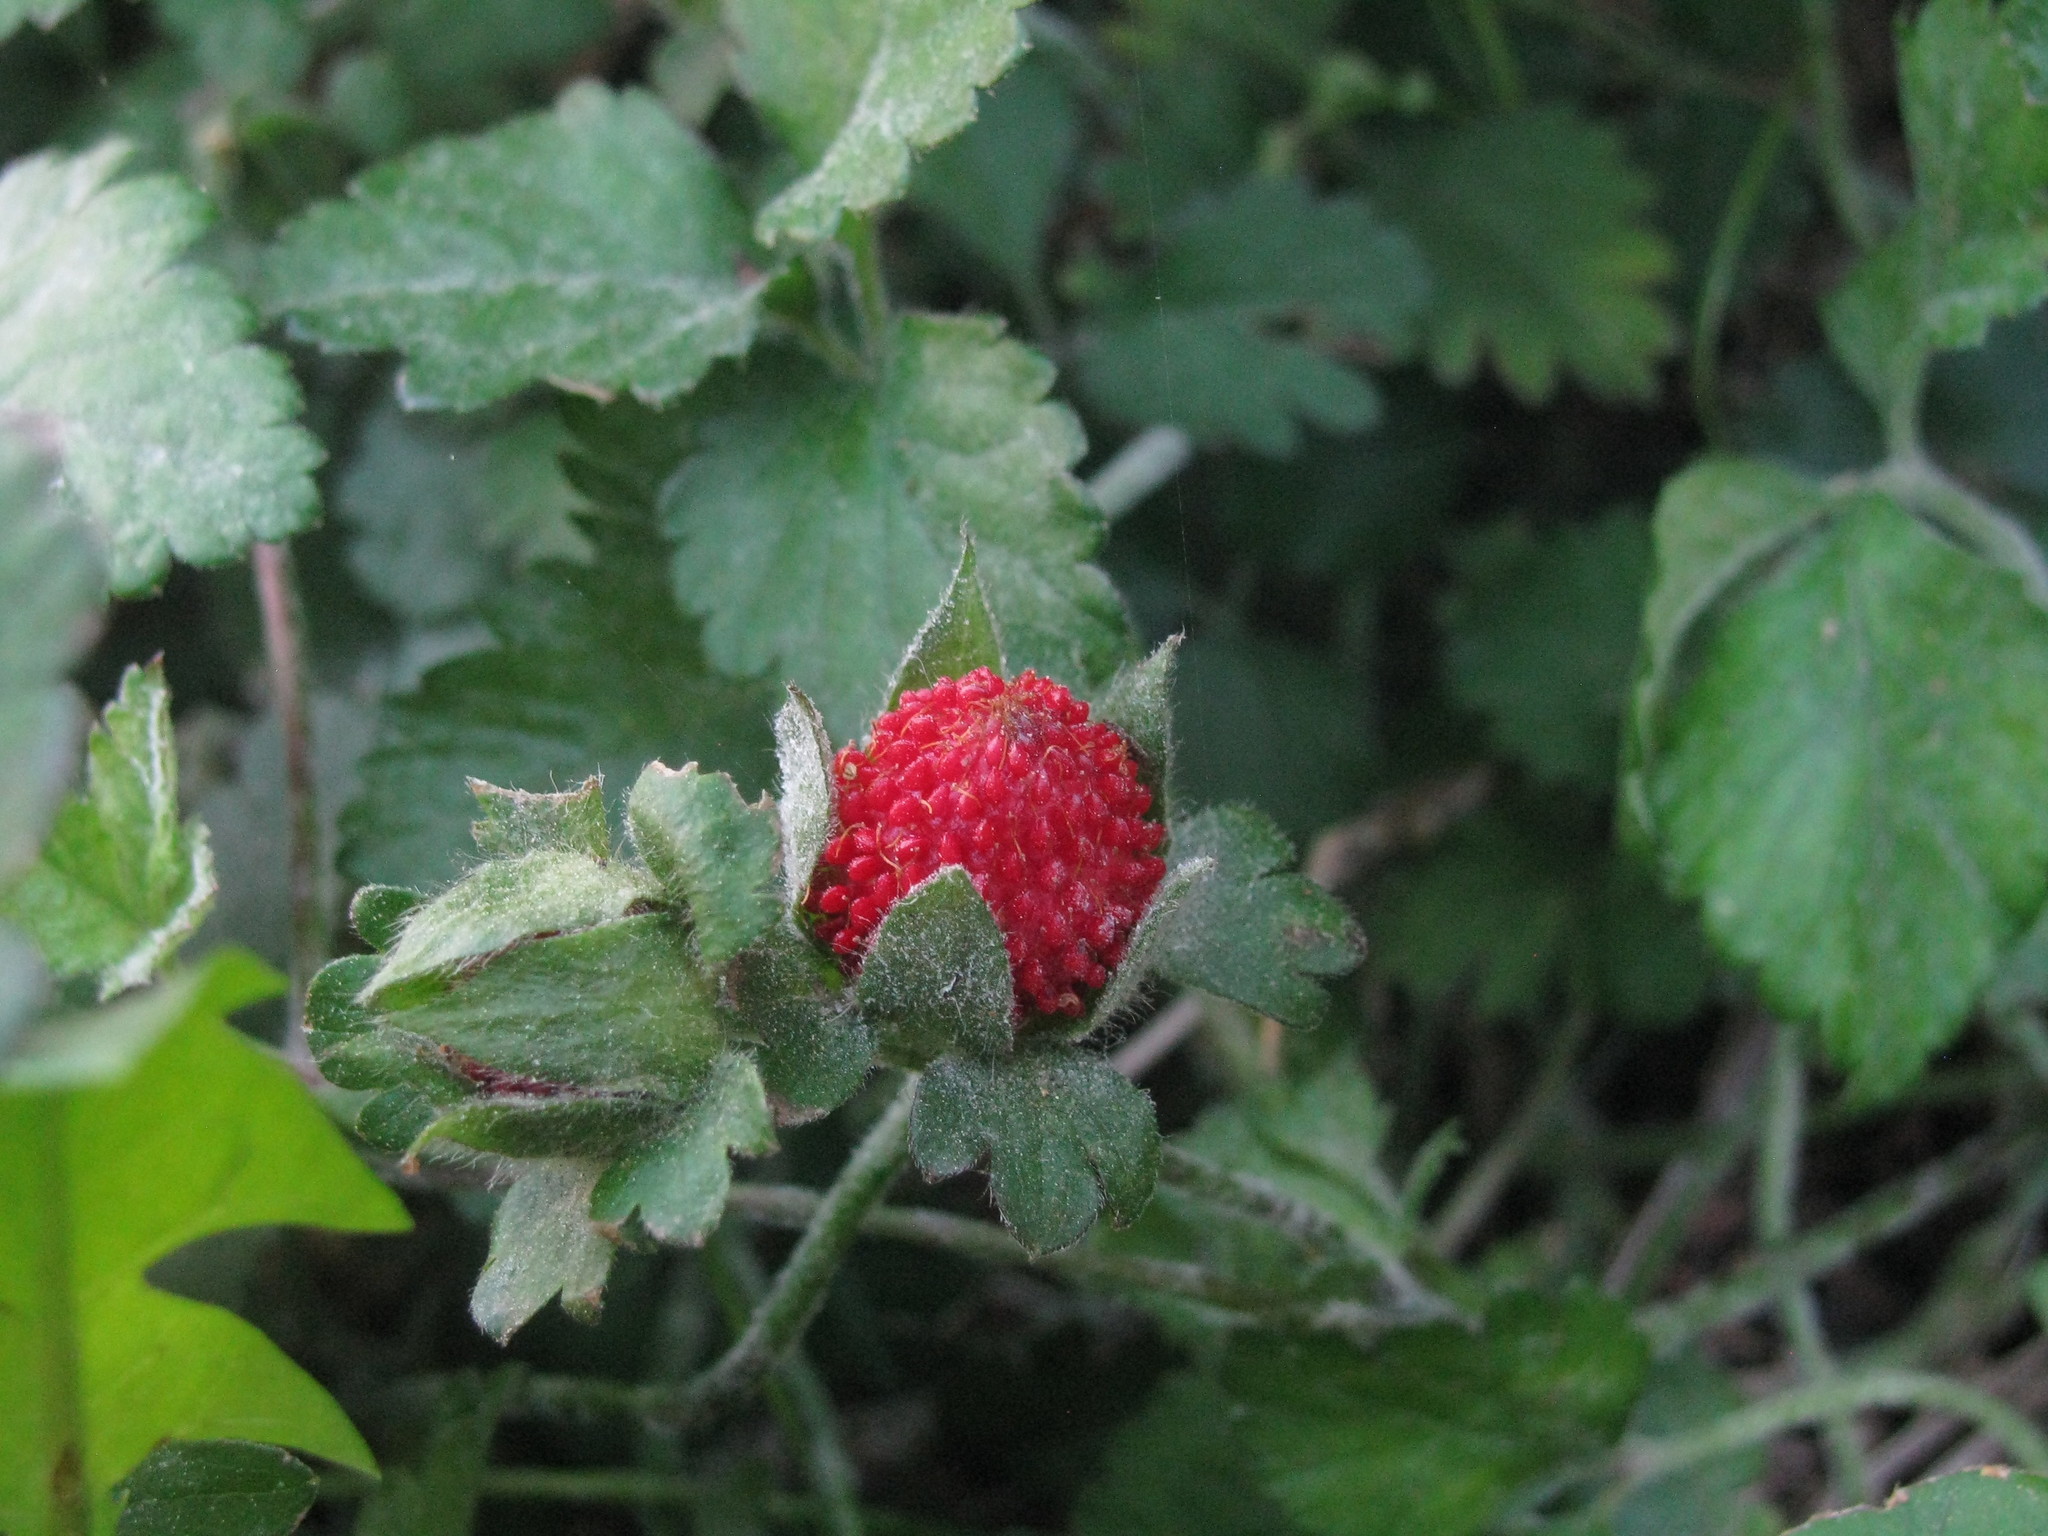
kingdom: Plantae
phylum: Tracheophyta
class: Magnoliopsida
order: Rosales
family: Rosaceae
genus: Potentilla
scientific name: Potentilla indica
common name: Yellow-flowered strawberry
